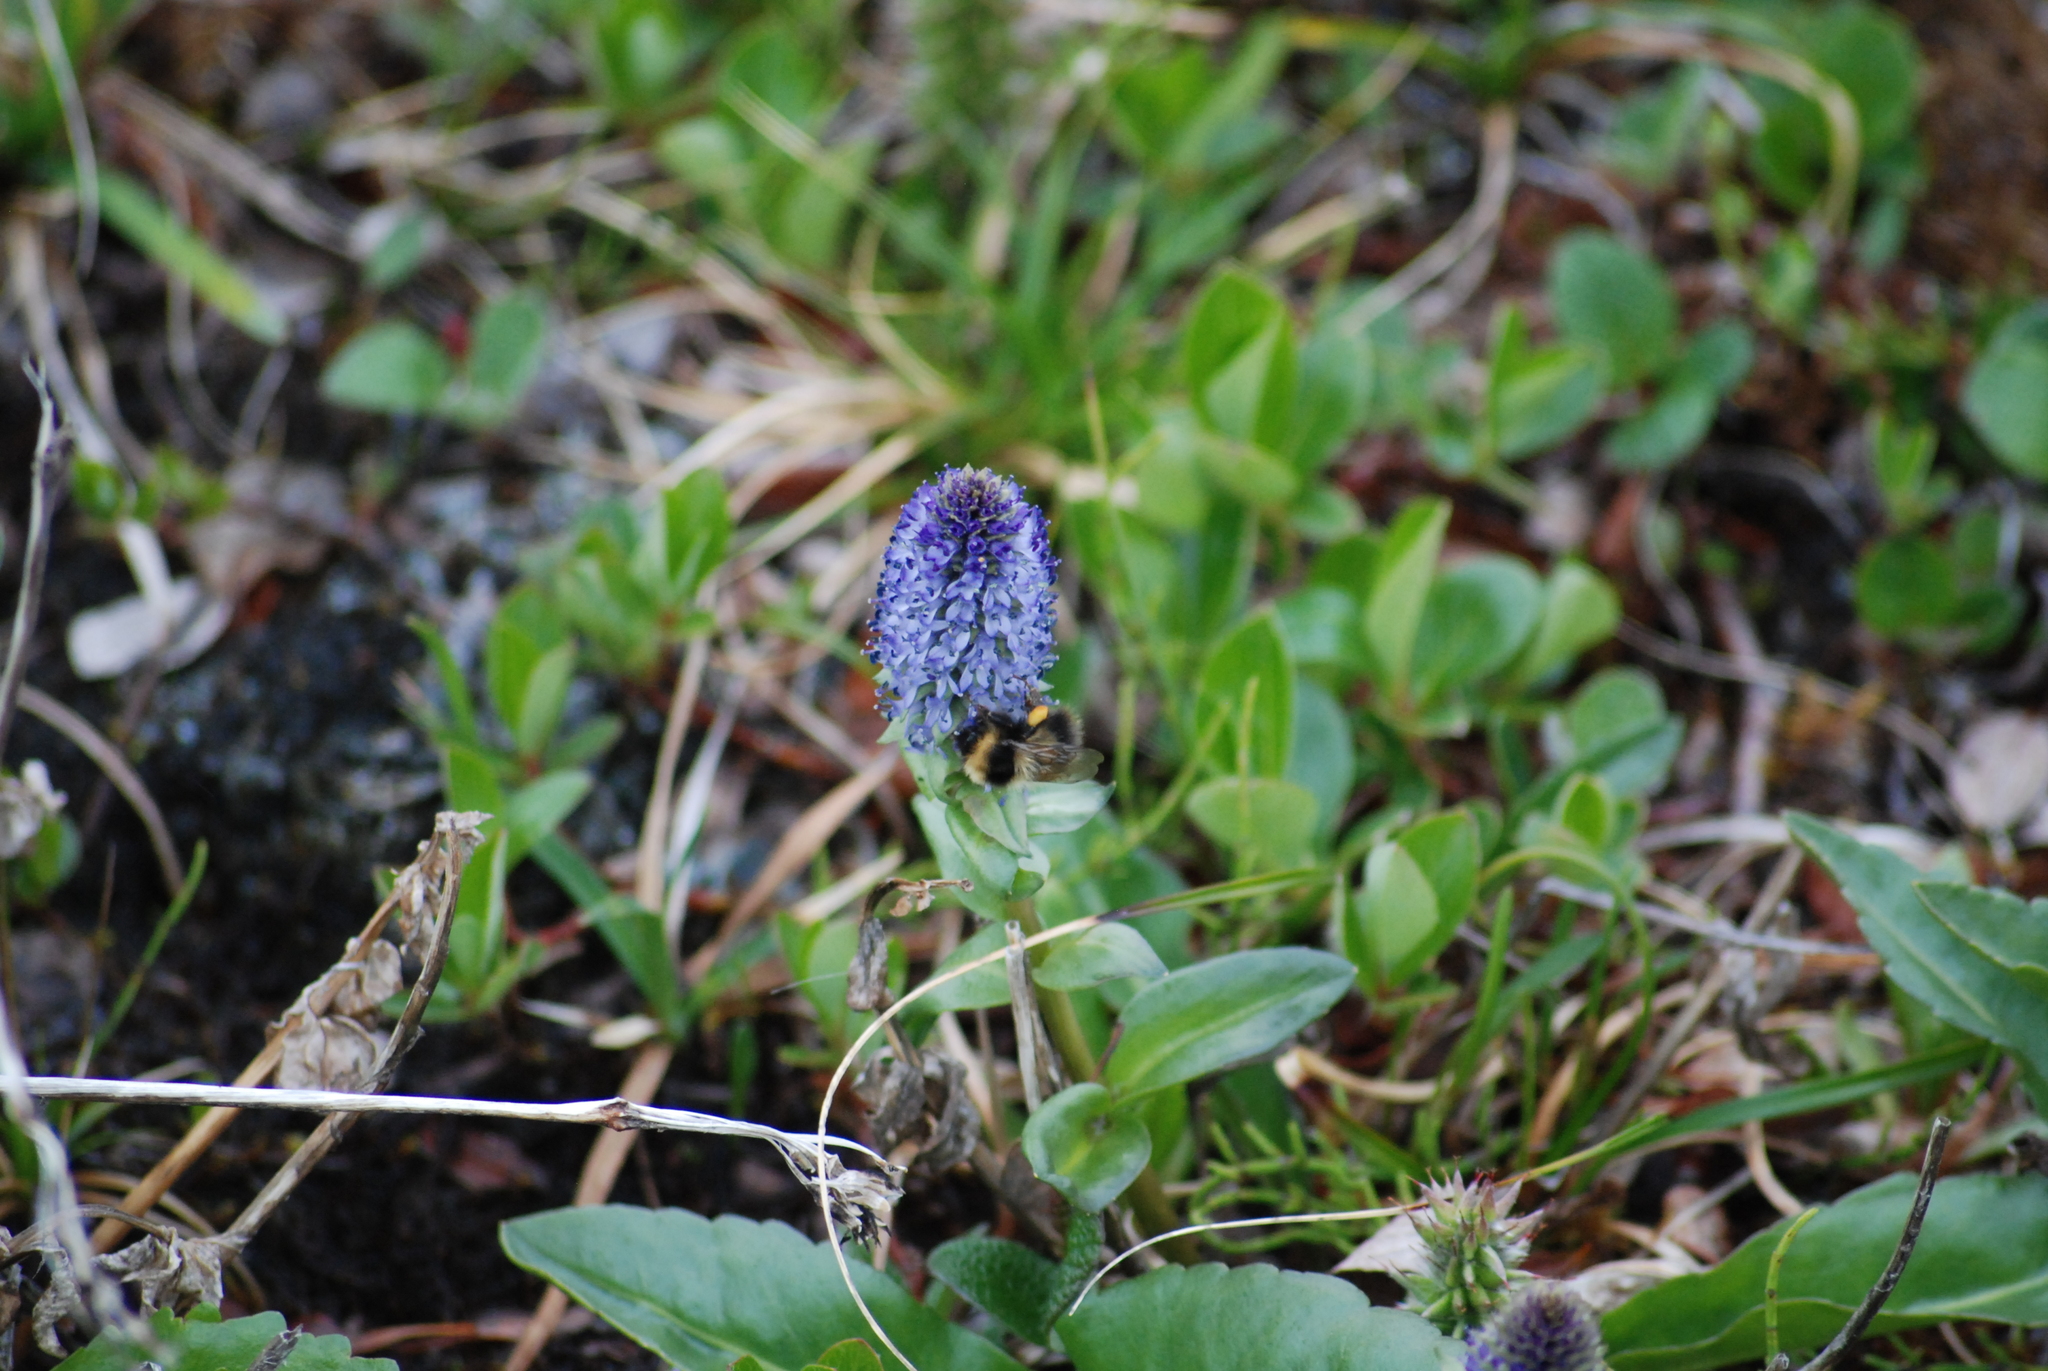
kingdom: Plantae
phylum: Tracheophyta
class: Magnoliopsida
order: Lamiales
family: Plantaginaceae
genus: Lagotis
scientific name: Lagotis glauca
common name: Glaucous weaselsnout
